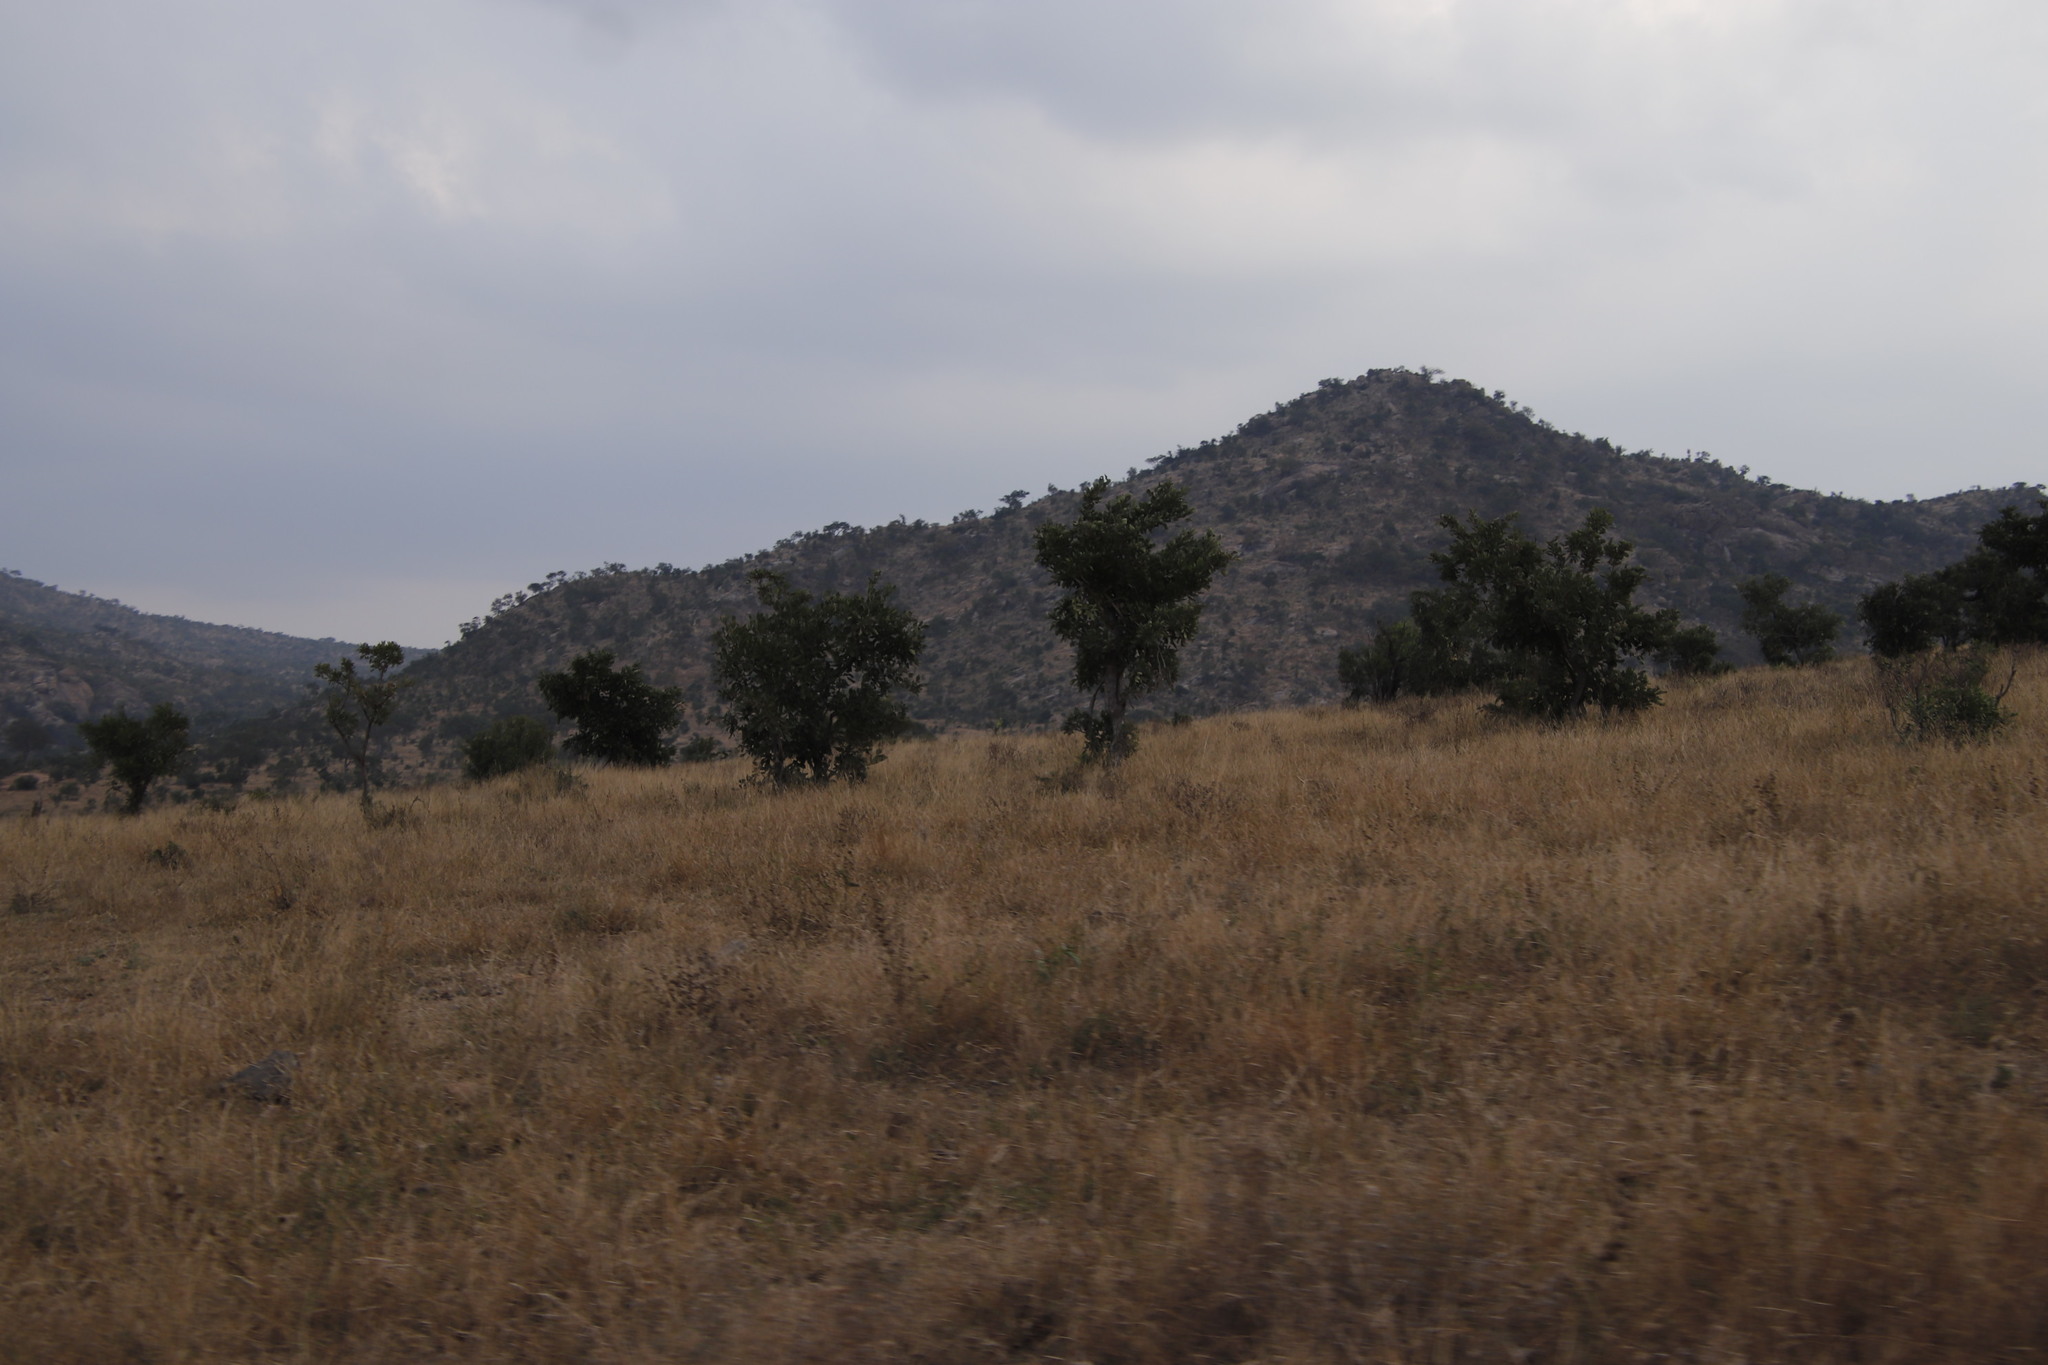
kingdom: Plantae
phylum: Tracheophyta
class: Magnoliopsida
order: Fabales
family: Fabaceae
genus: Philenoptera
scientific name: Philenoptera violacea
